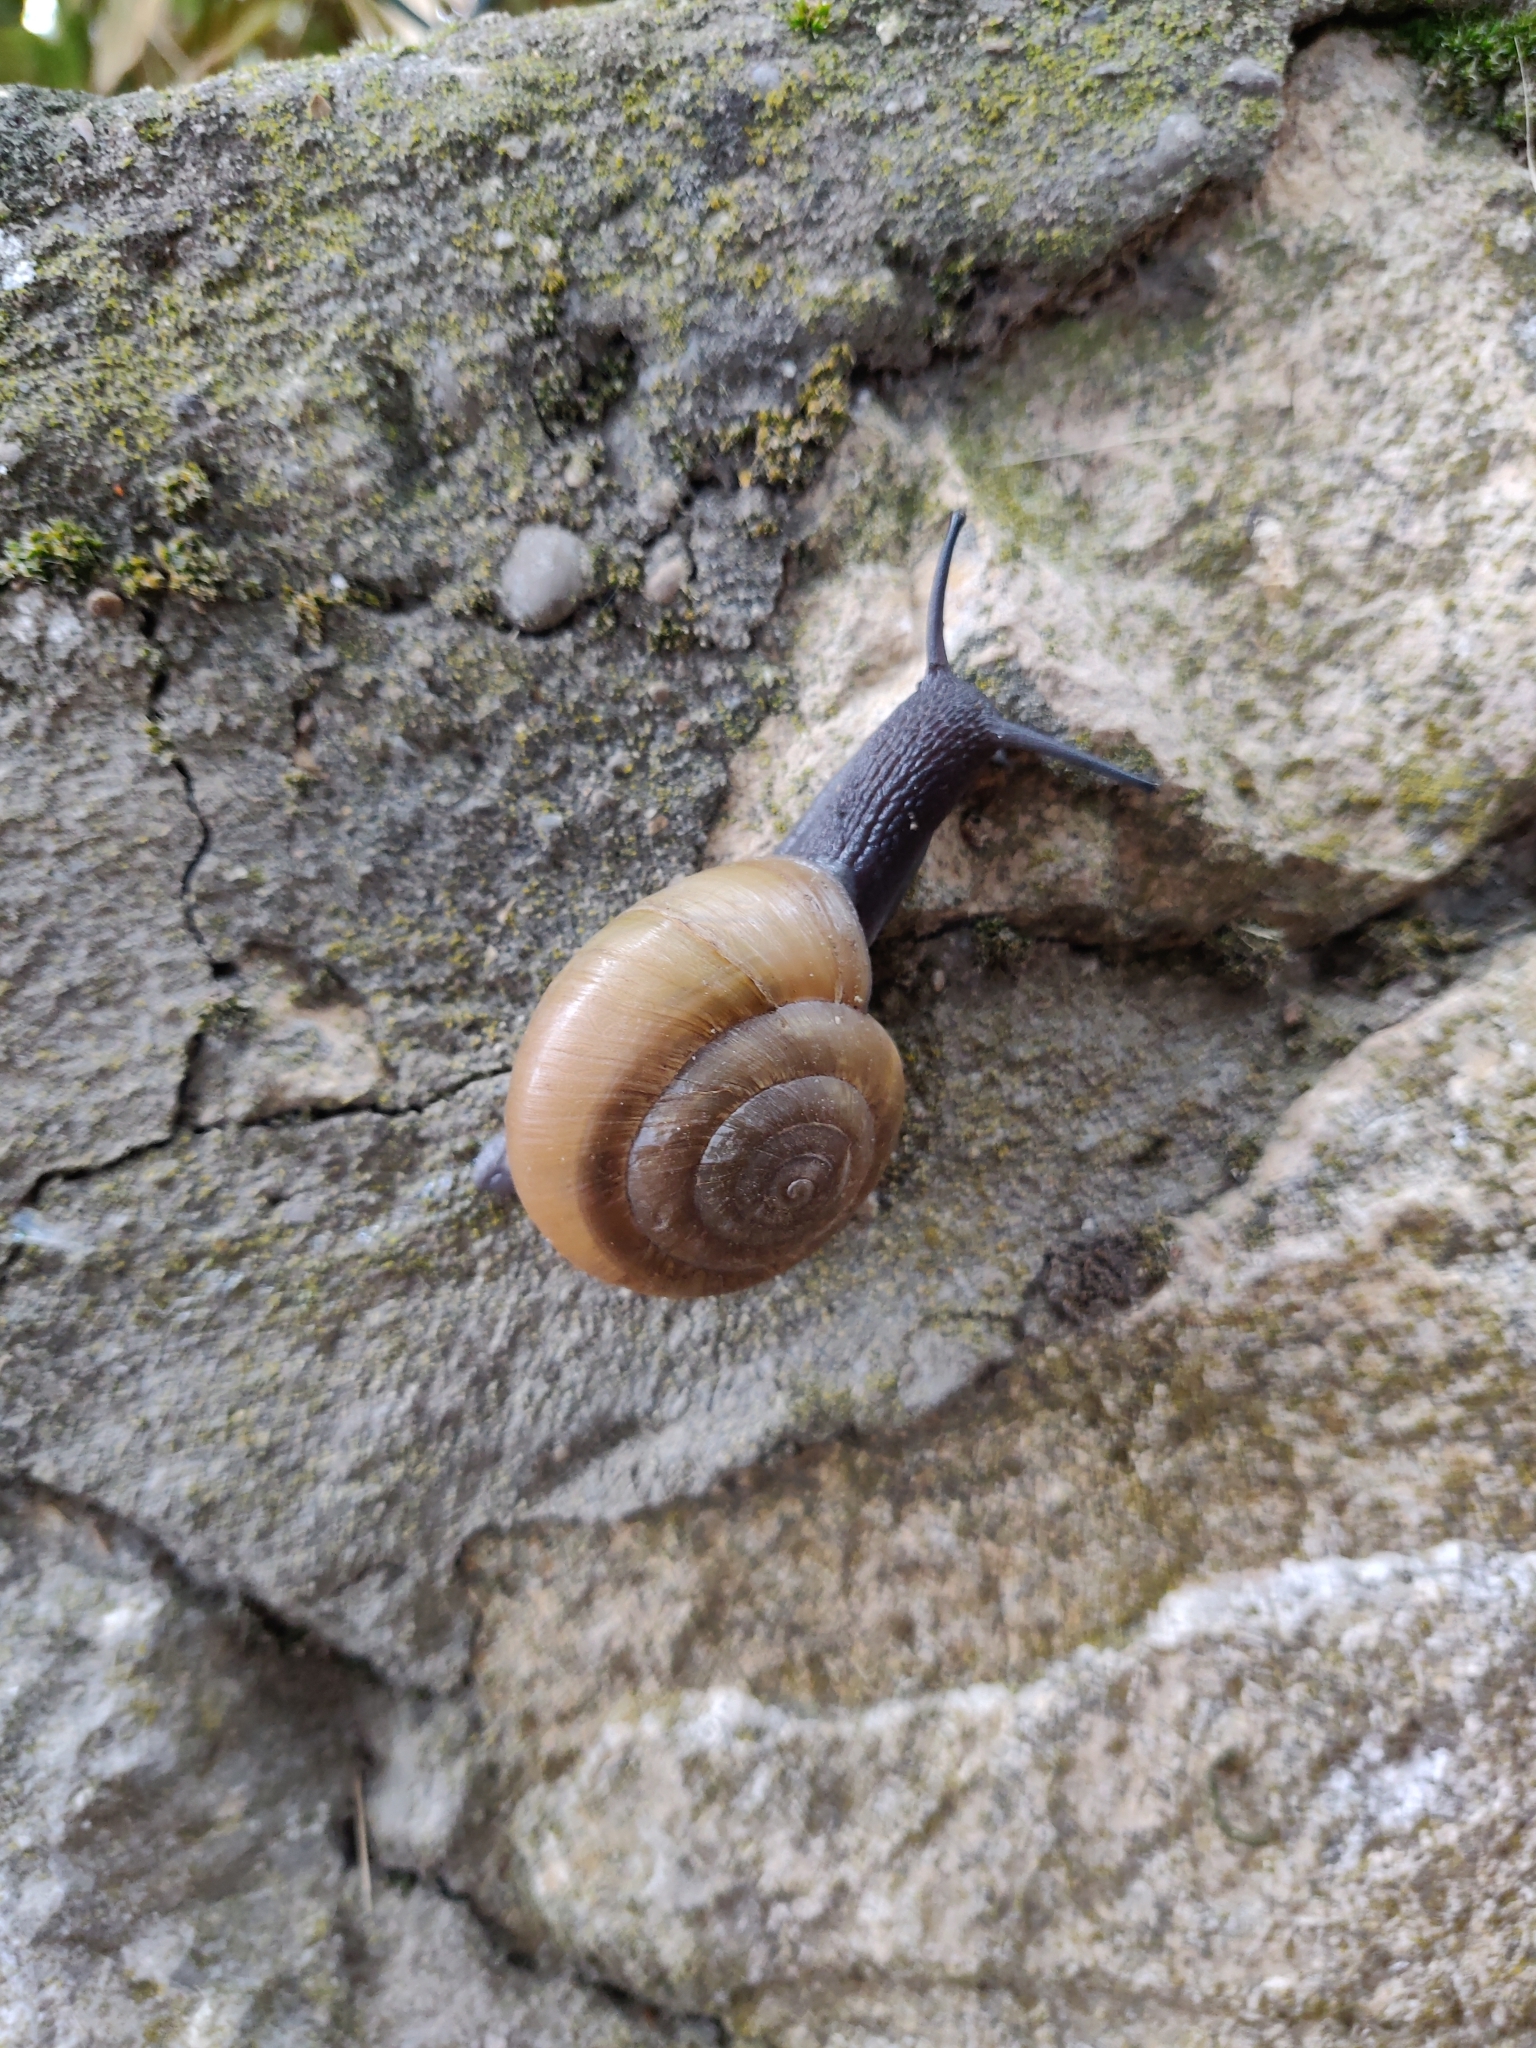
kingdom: Animalia
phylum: Mollusca
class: Gastropoda
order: Stylommatophora
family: Zonitidae
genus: Zonites
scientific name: Zonites algirus
